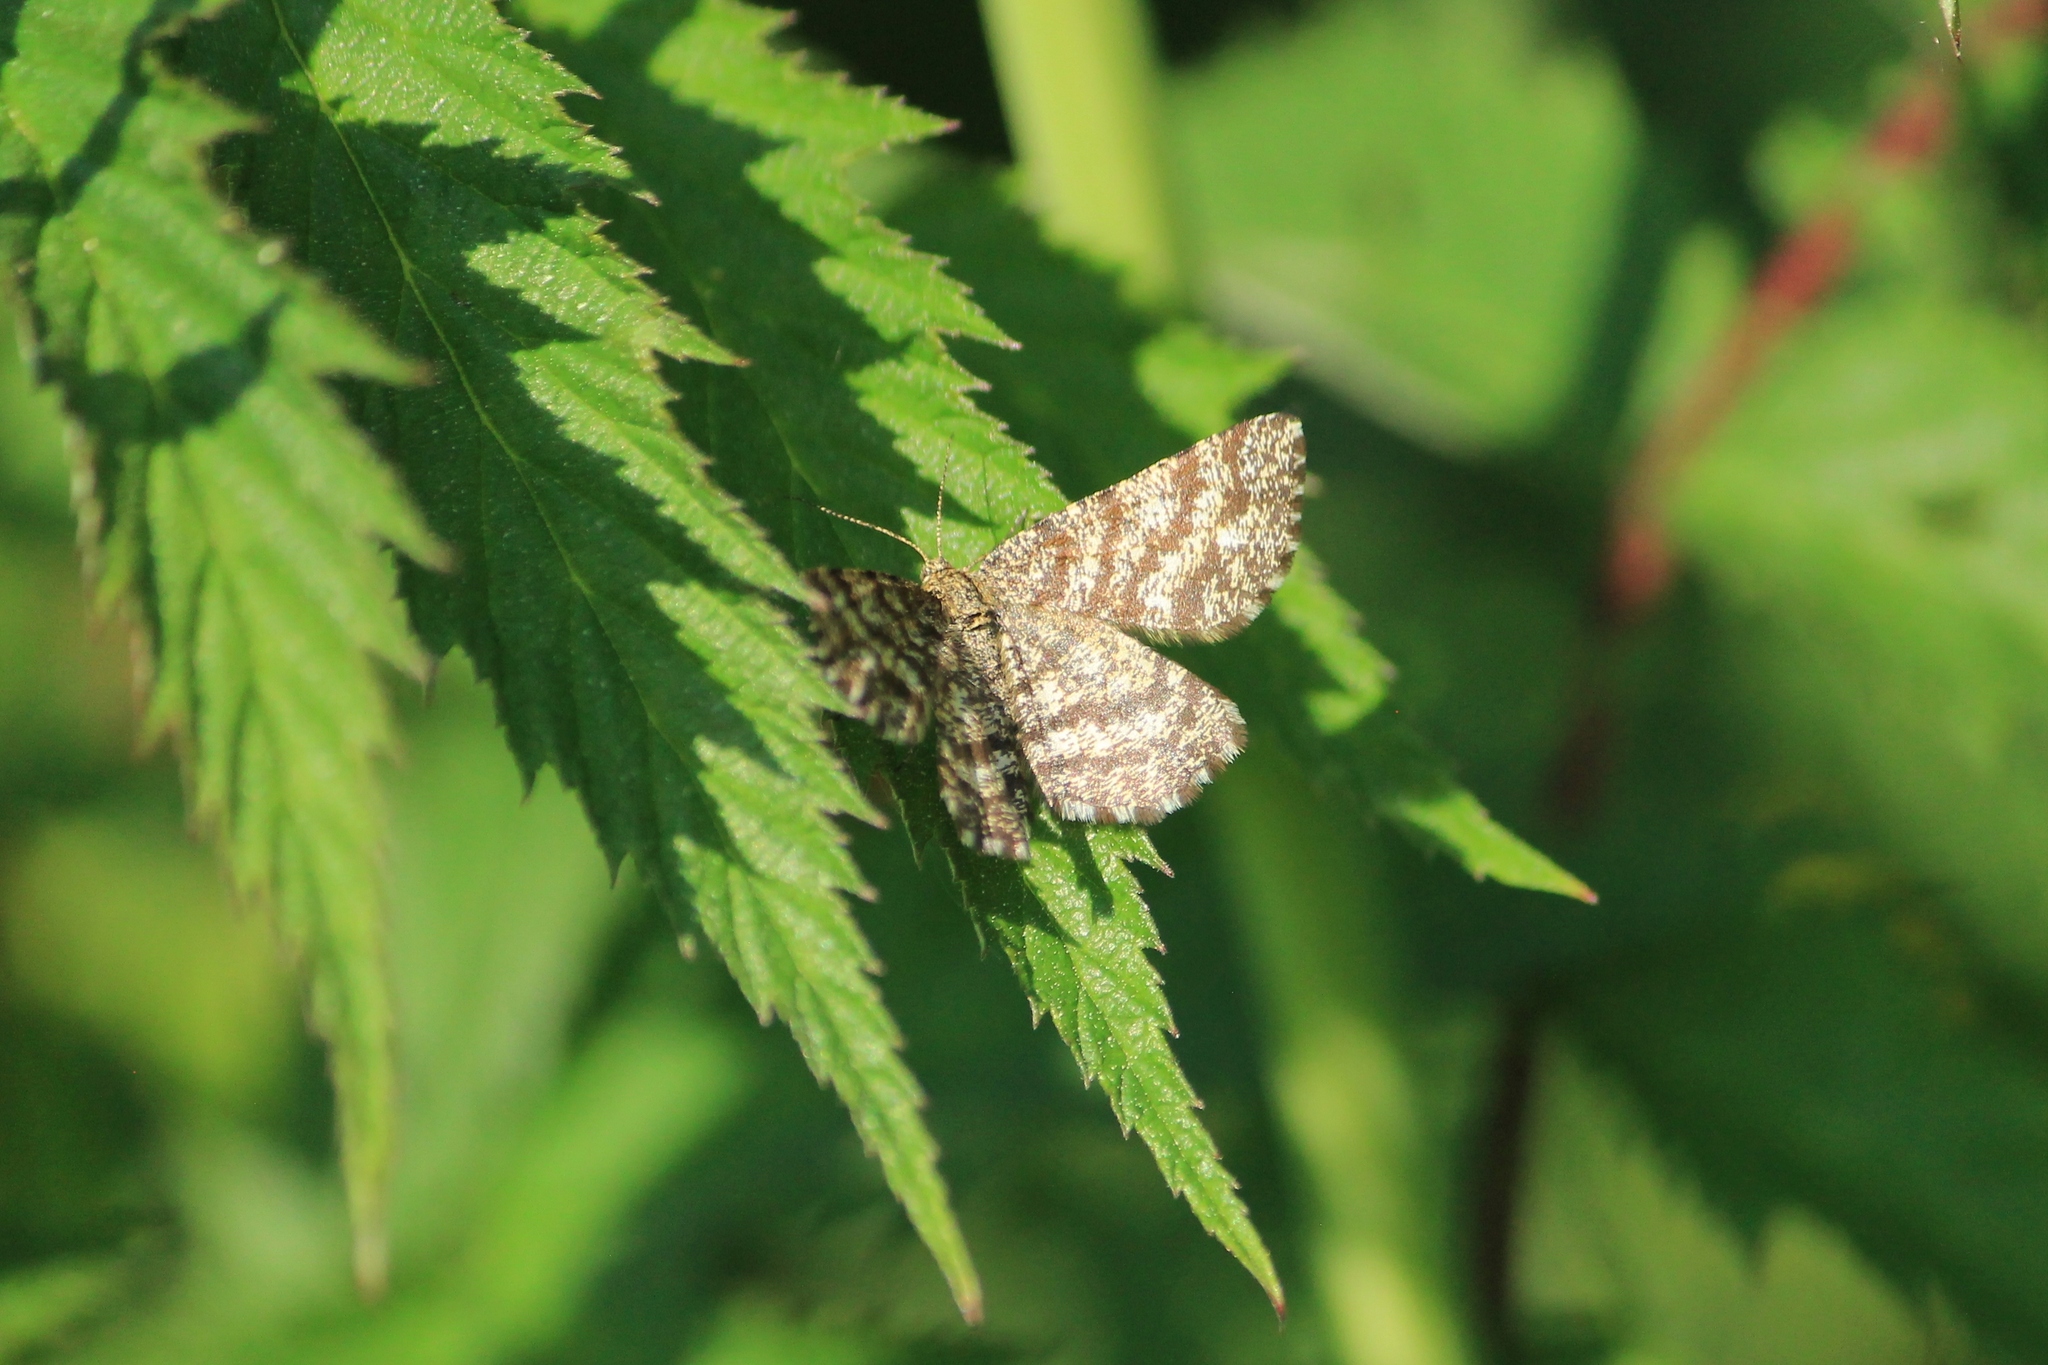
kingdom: Animalia
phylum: Arthropoda
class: Insecta
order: Lepidoptera
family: Geometridae
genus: Ematurga
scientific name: Ematurga atomaria
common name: Common heath
